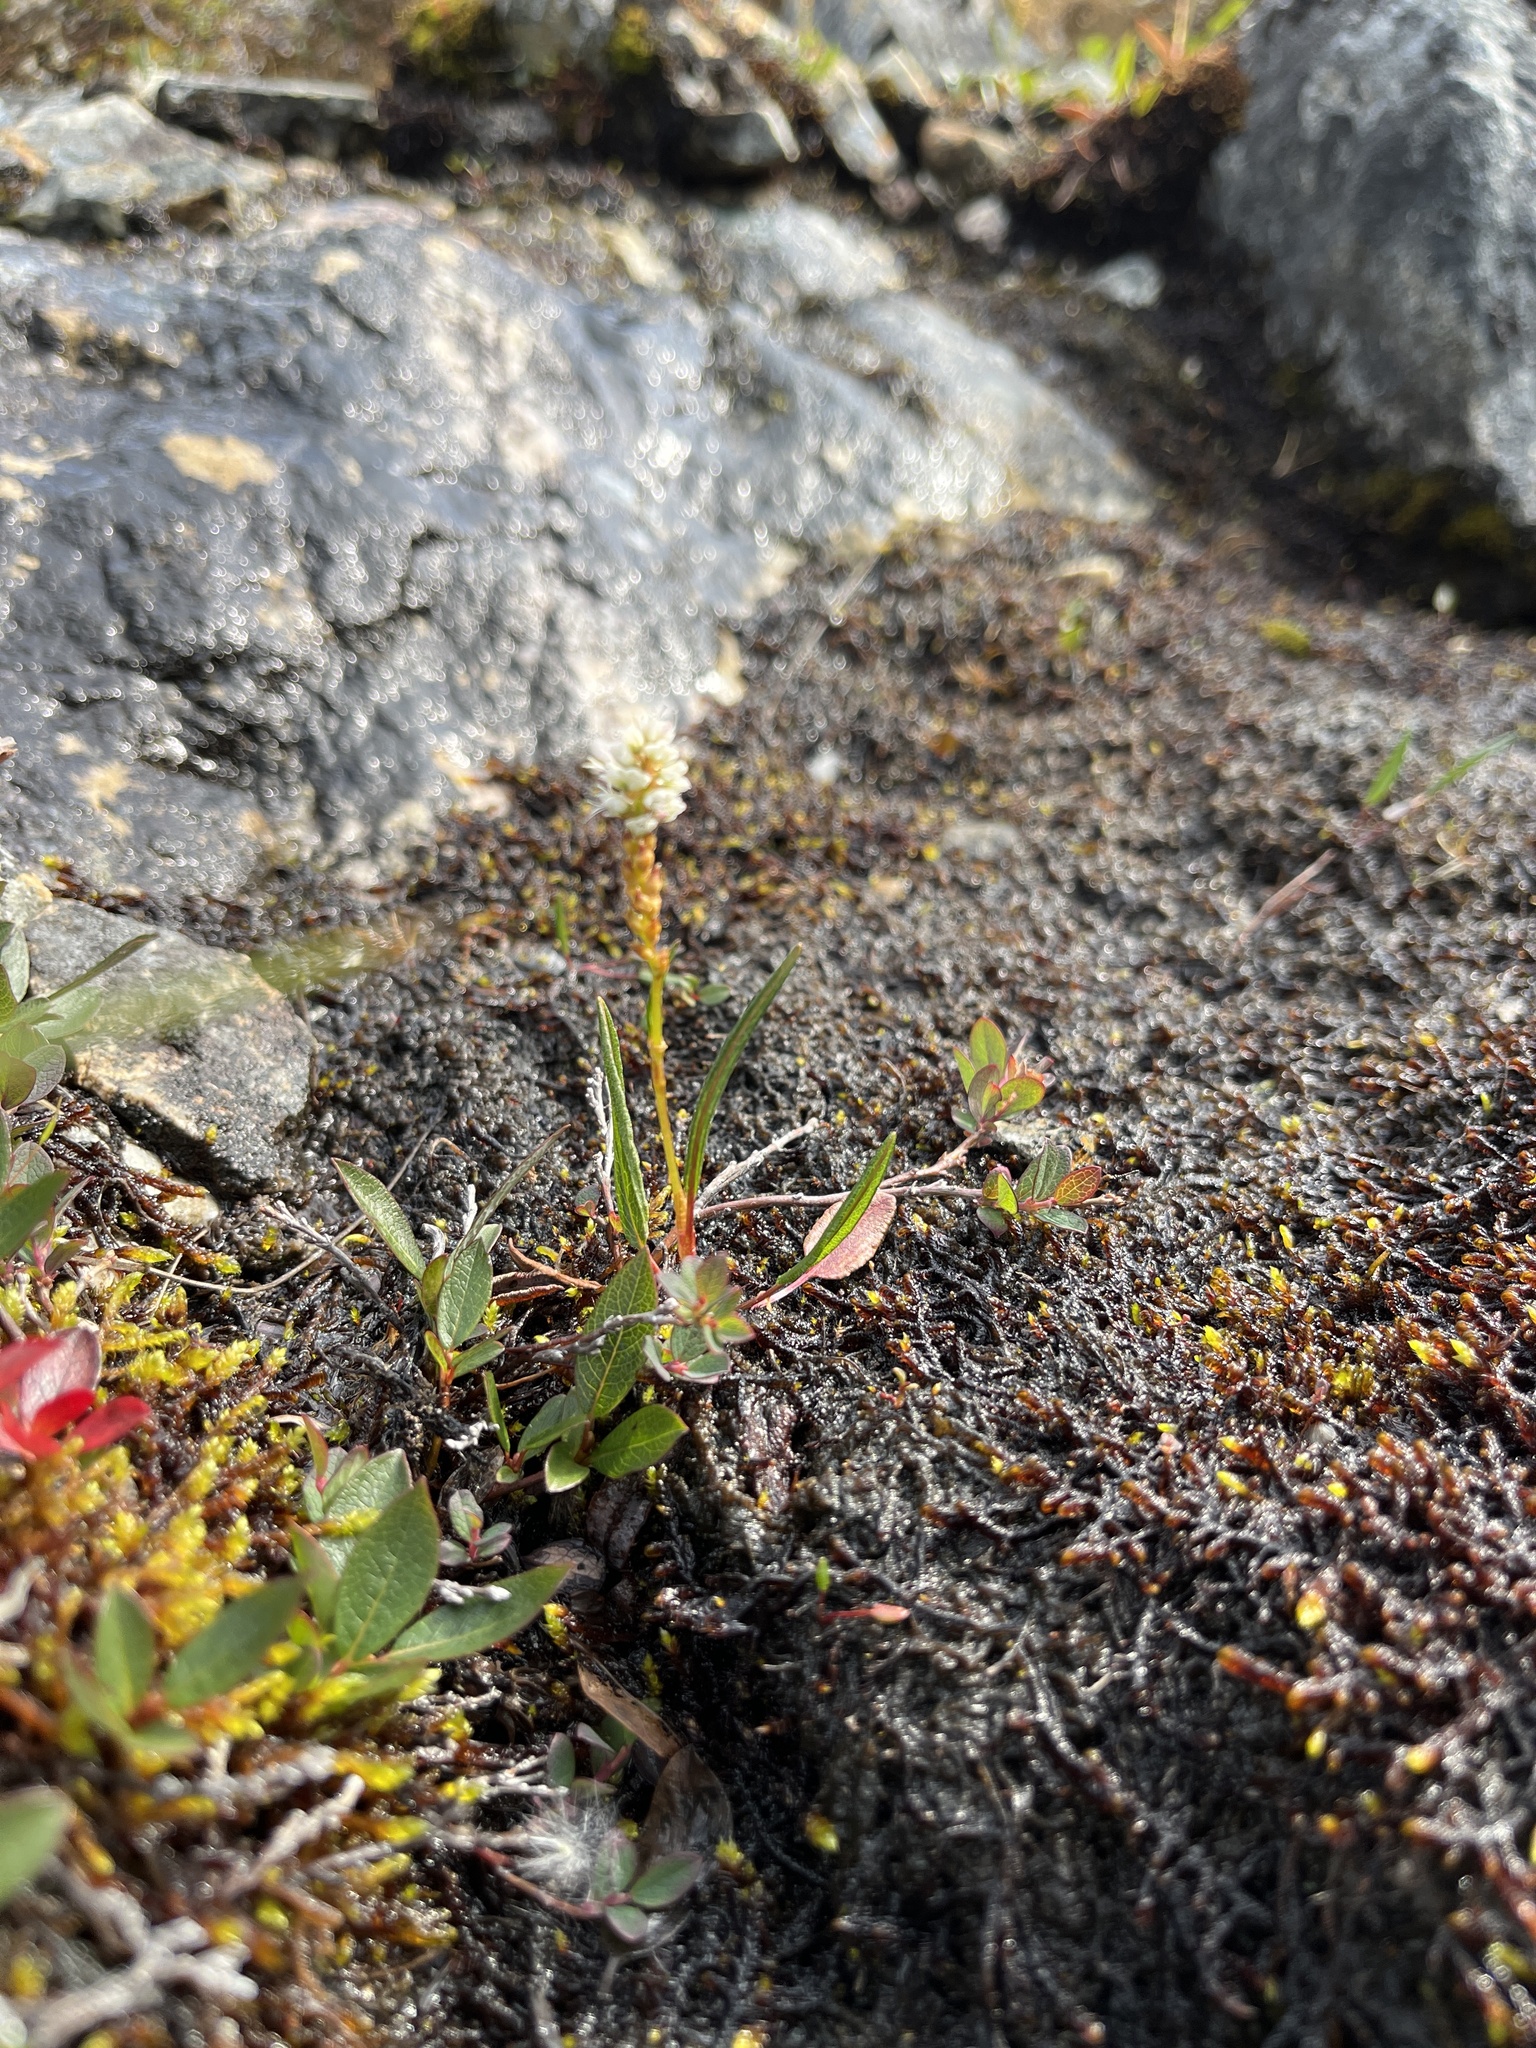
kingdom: Plantae
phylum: Tracheophyta
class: Magnoliopsida
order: Caryophyllales
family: Polygonaceae
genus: Bistorta
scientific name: Bistorta vivipara
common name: Alpine bistort
